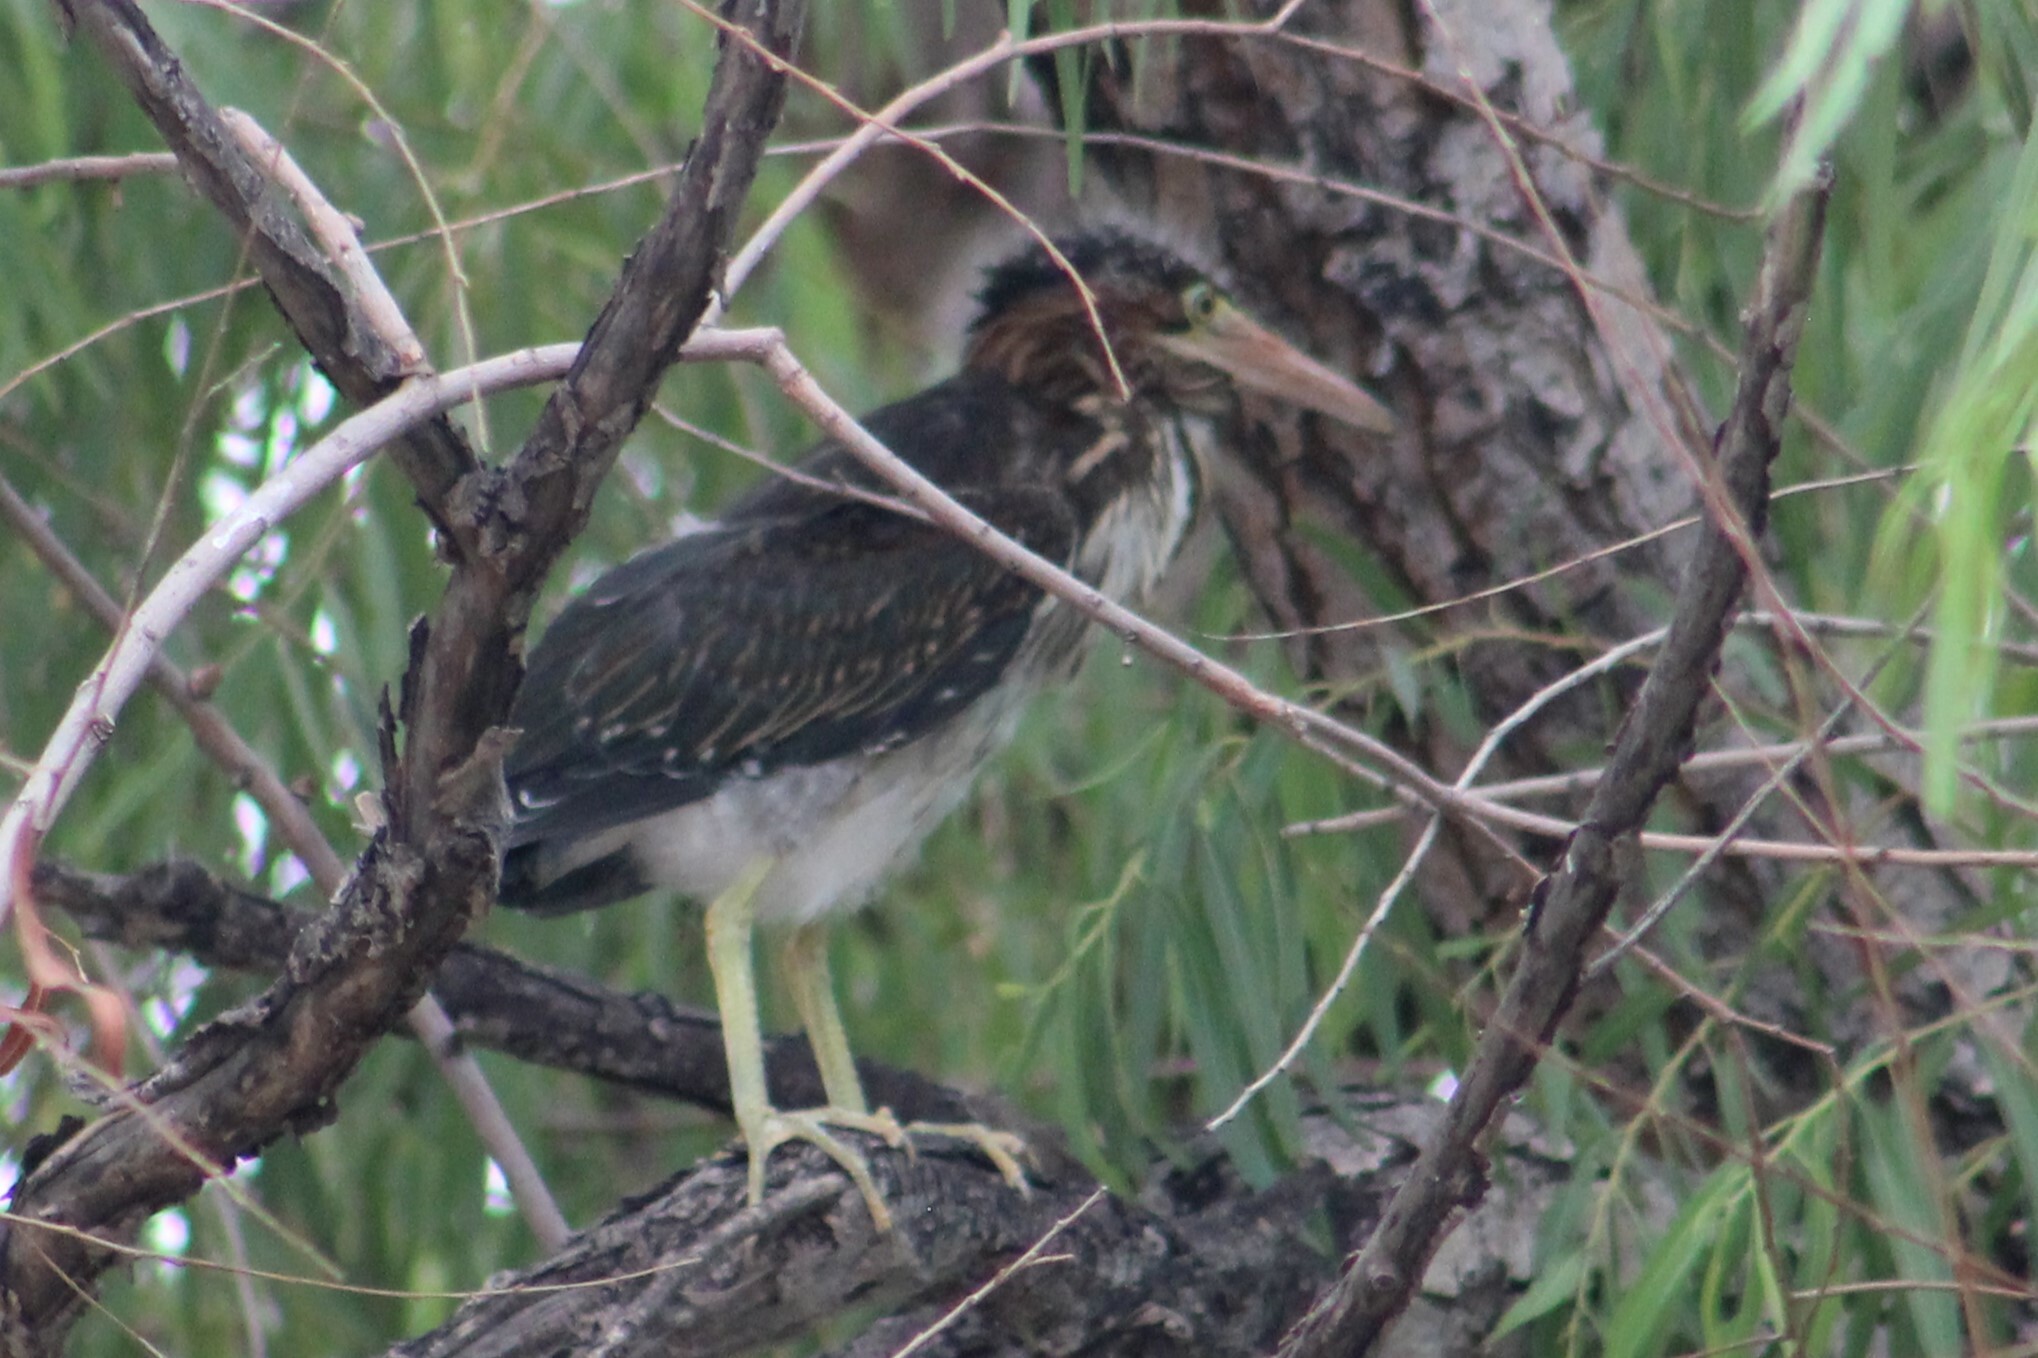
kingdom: Animalia
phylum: Chordata
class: Aves
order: Pelecaniformes
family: Ardeidae
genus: Butorides
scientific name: Butorides virescens
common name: Green heron
